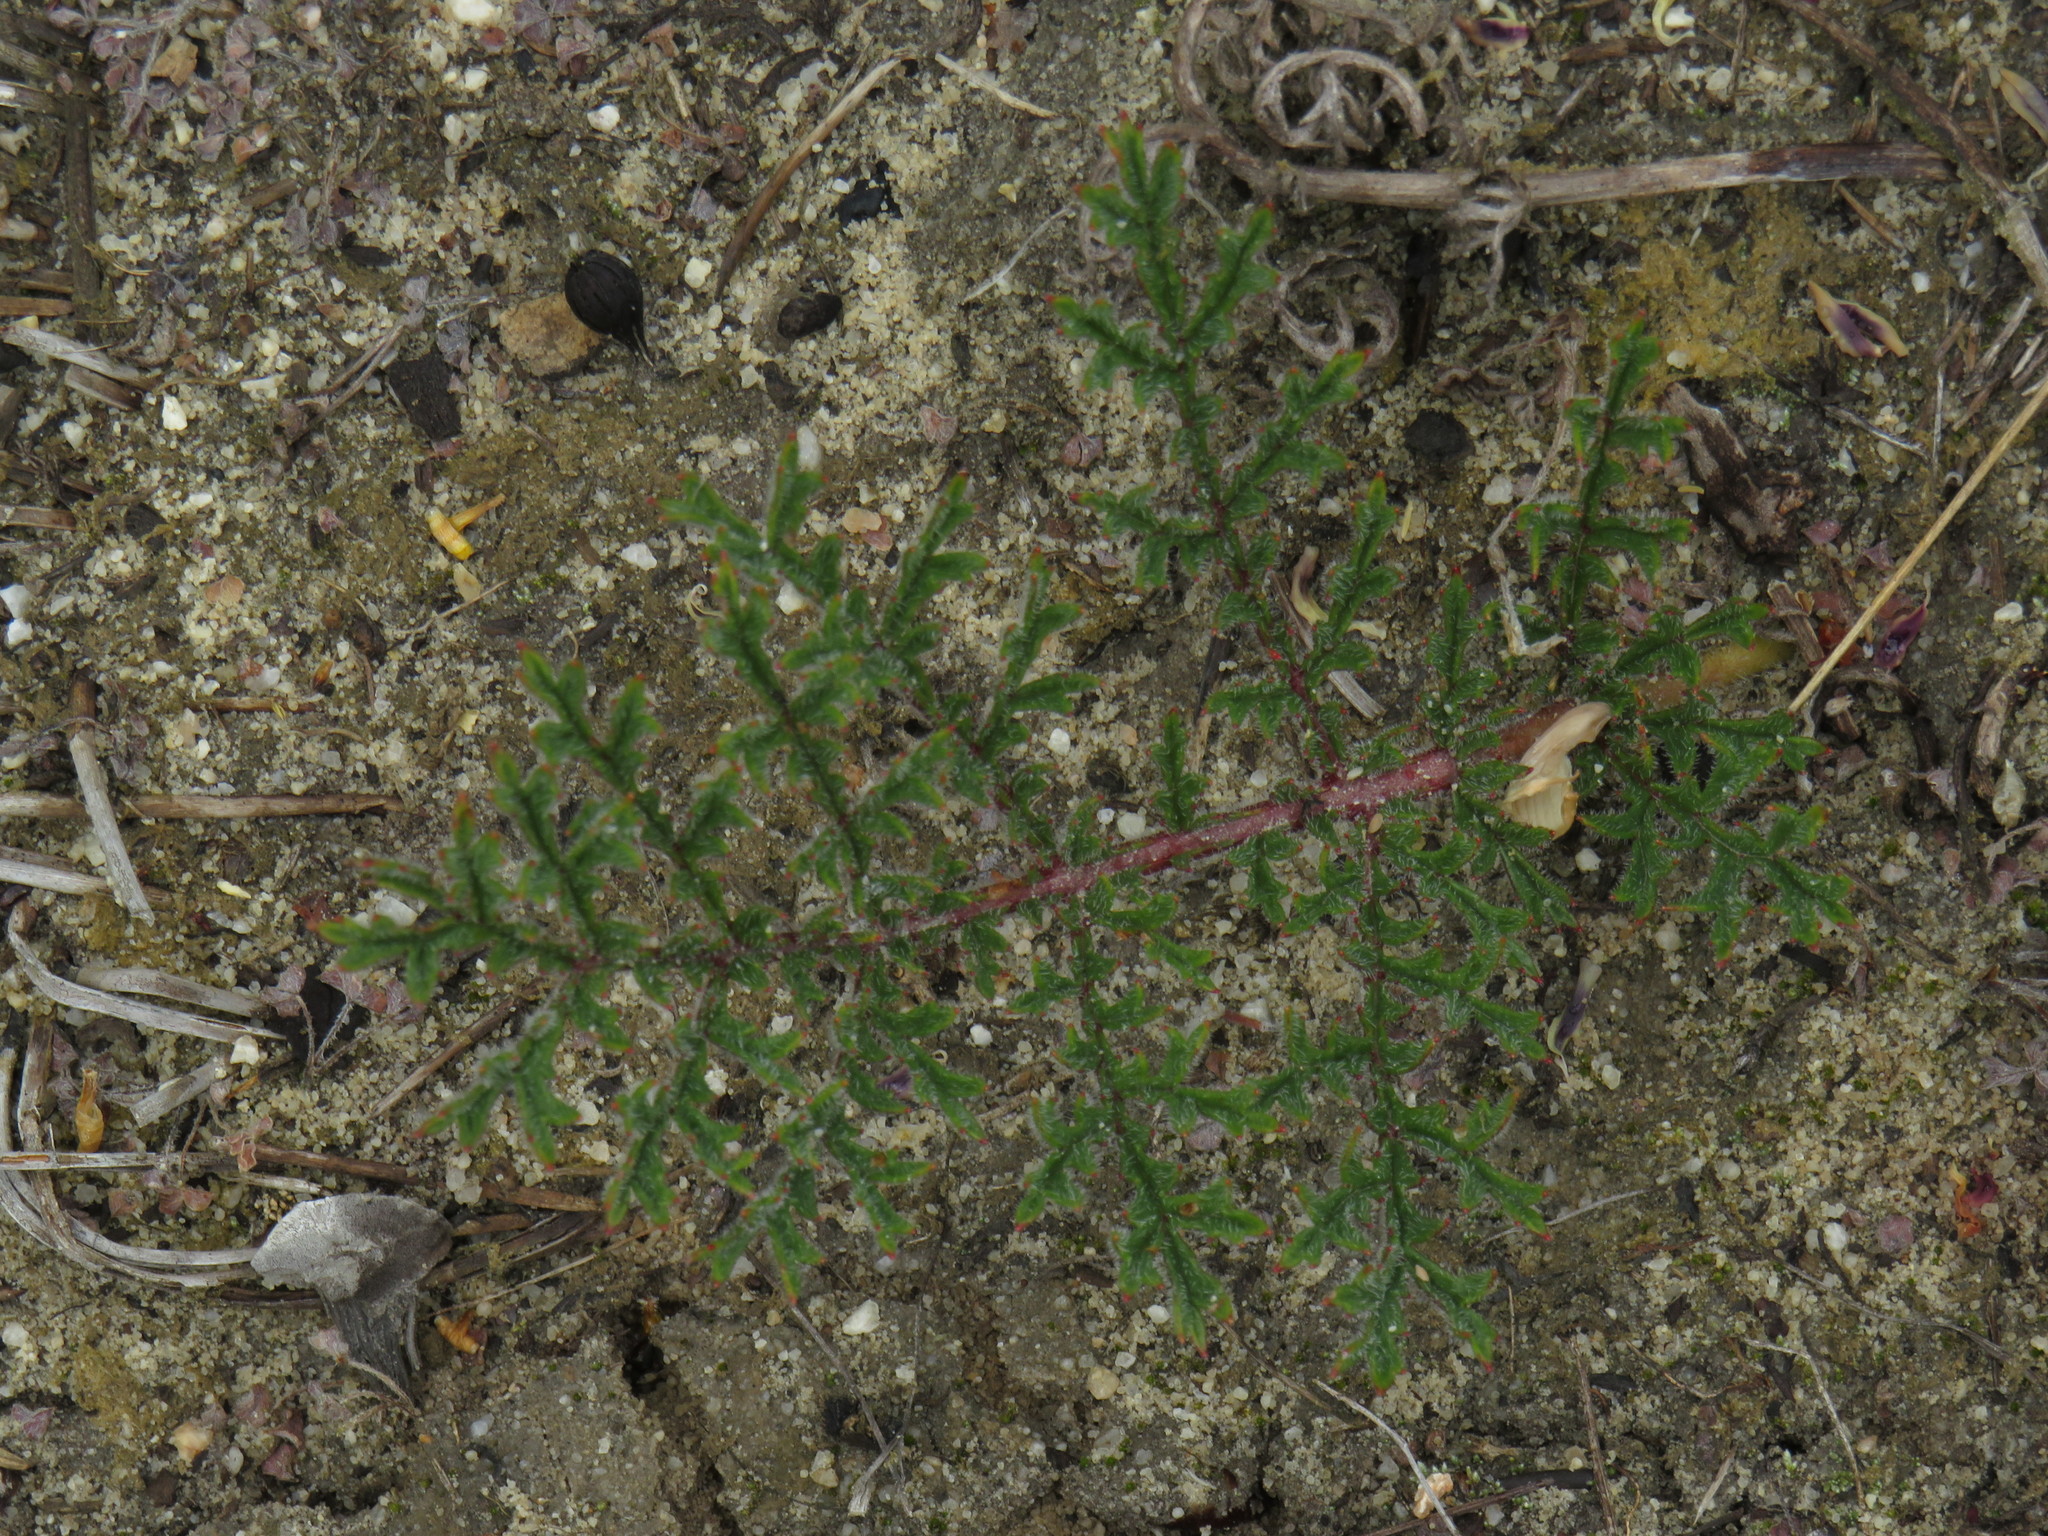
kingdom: Plantae
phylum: Tracheophyta
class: Magnoliopsida
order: Geraniales
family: Geraniaceae
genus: Pelargonium
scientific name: Pelargonium triste
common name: Night-scent pelargonium
